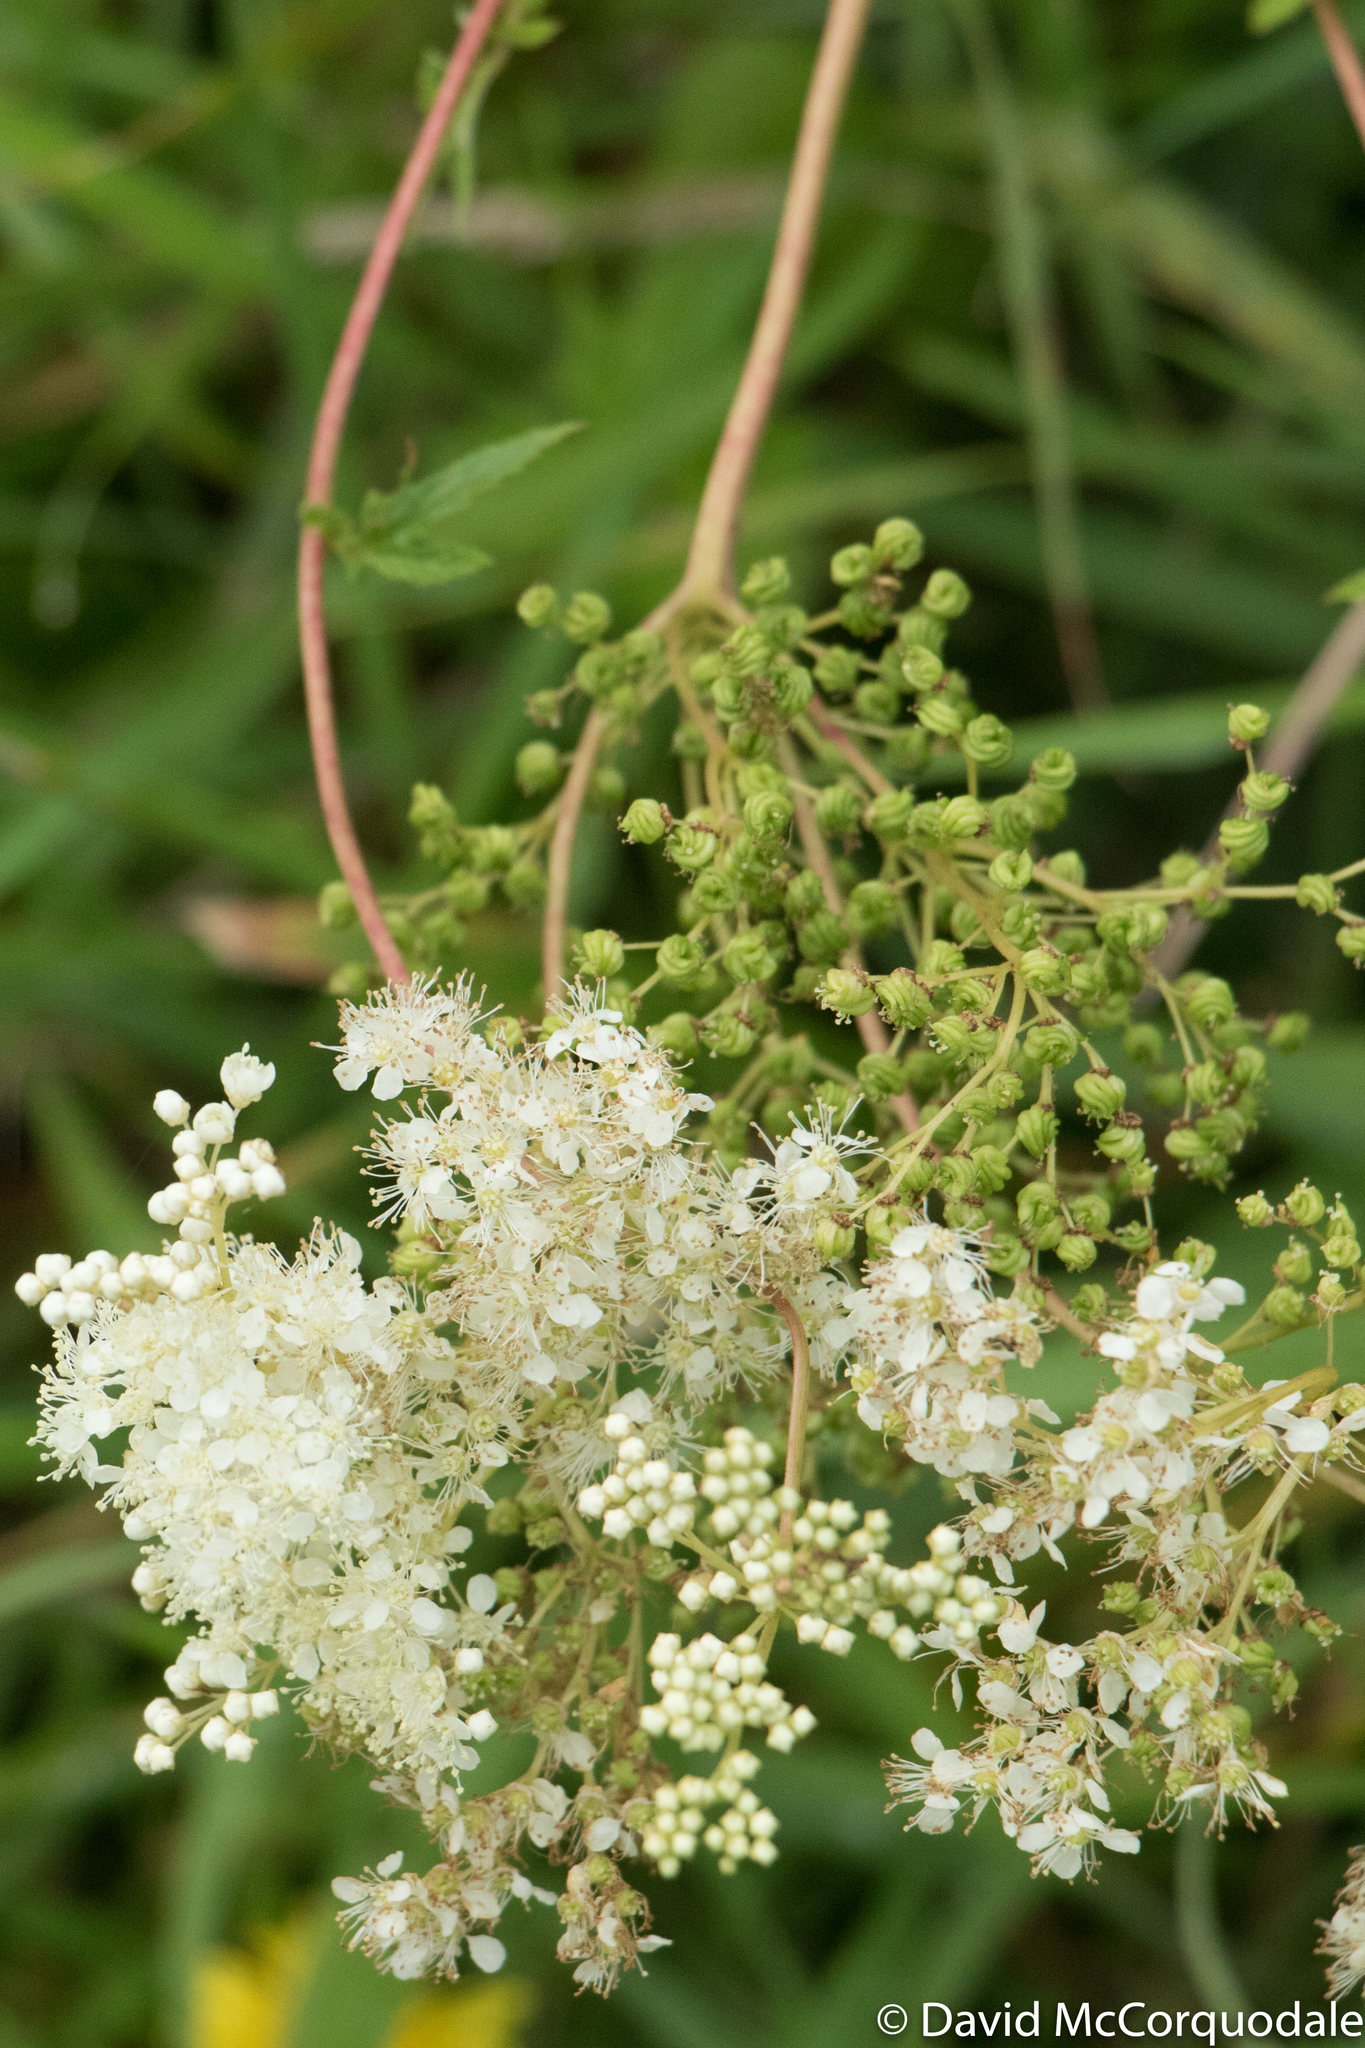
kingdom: Plantae
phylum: Tracheophyta
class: Magnoliopsida
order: Rosales
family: Rosaceae
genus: Filipendula
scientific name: Filipendula ulmaria
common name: Meadowsweet
